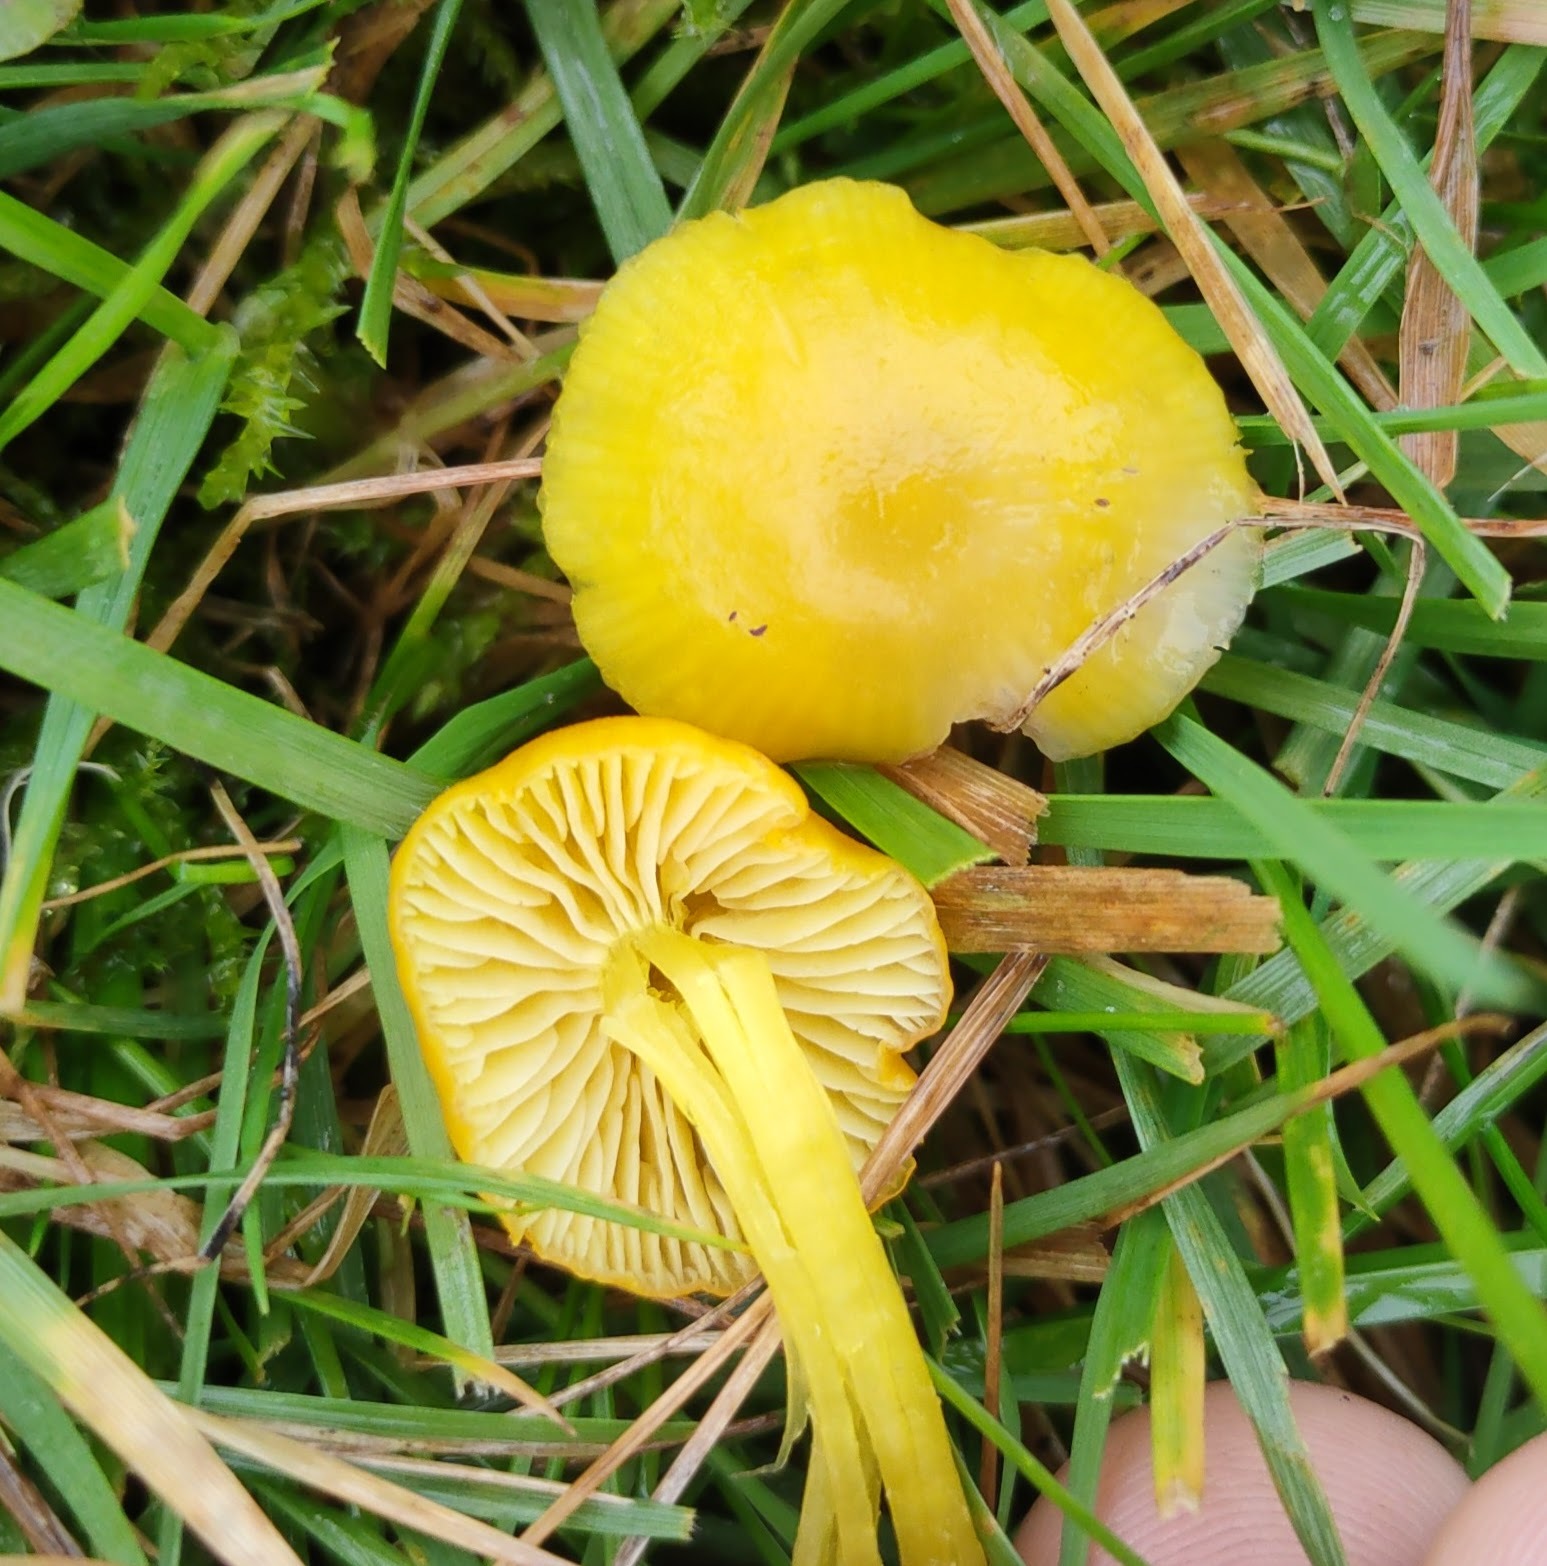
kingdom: Fungi
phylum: Basidiomycota
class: Agaricomycetes
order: Agaricales
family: Hygrophoraceae
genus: Hygrocybe
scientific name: Hygrocybe ceracea
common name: Butter waxcap
